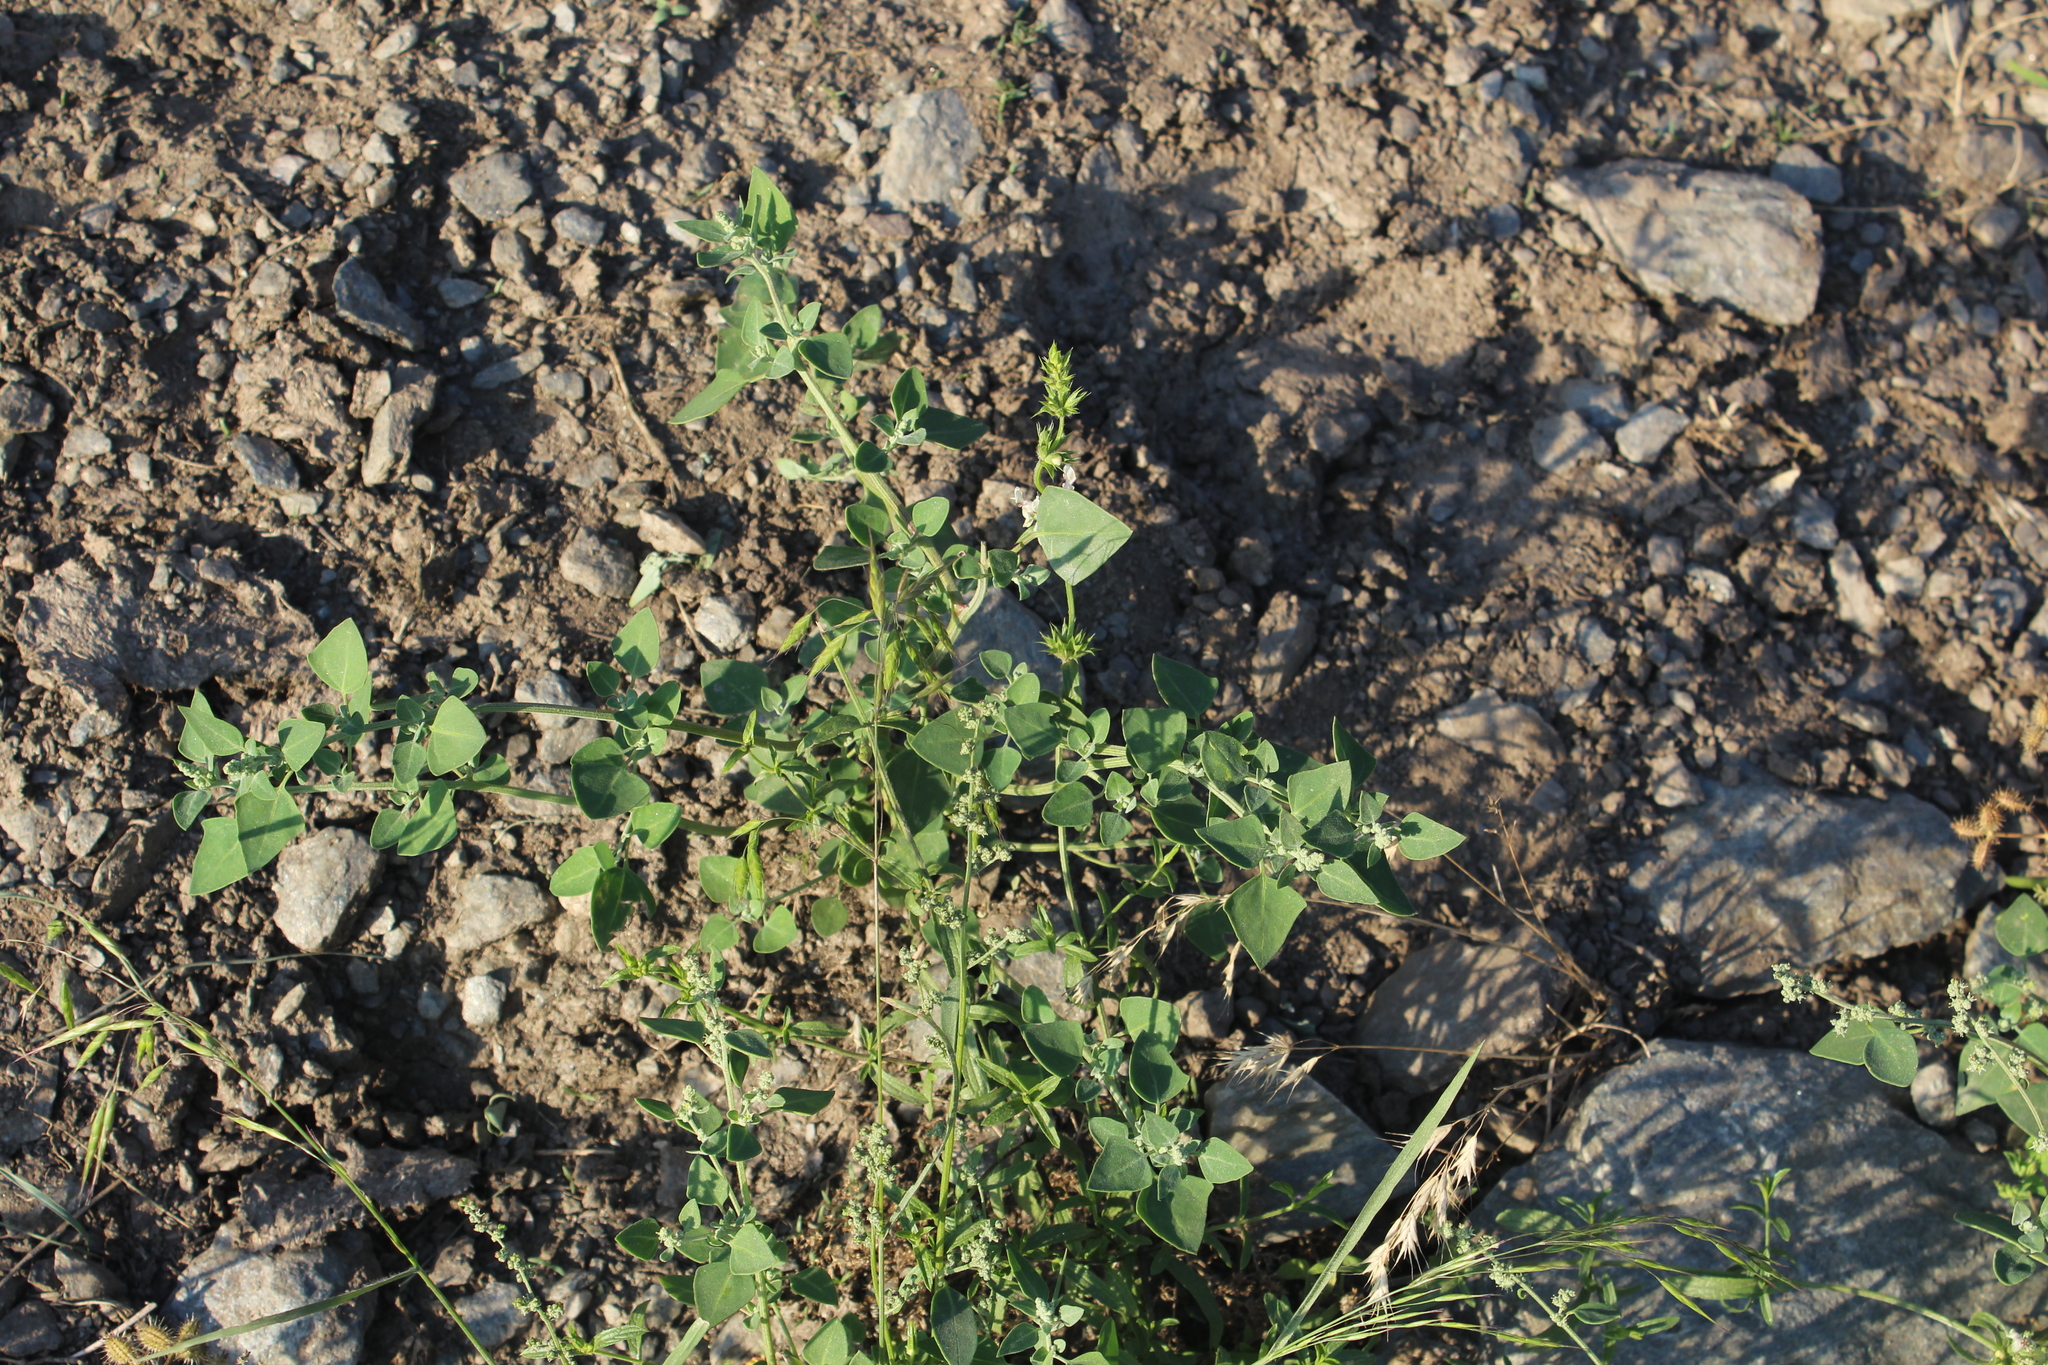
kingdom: Plantae
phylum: Tracheophyta
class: Magnoliopsida
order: Caryophyllales
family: Amaranthaceae
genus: Chenopodium
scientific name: Chenopodium sosnowskyi
